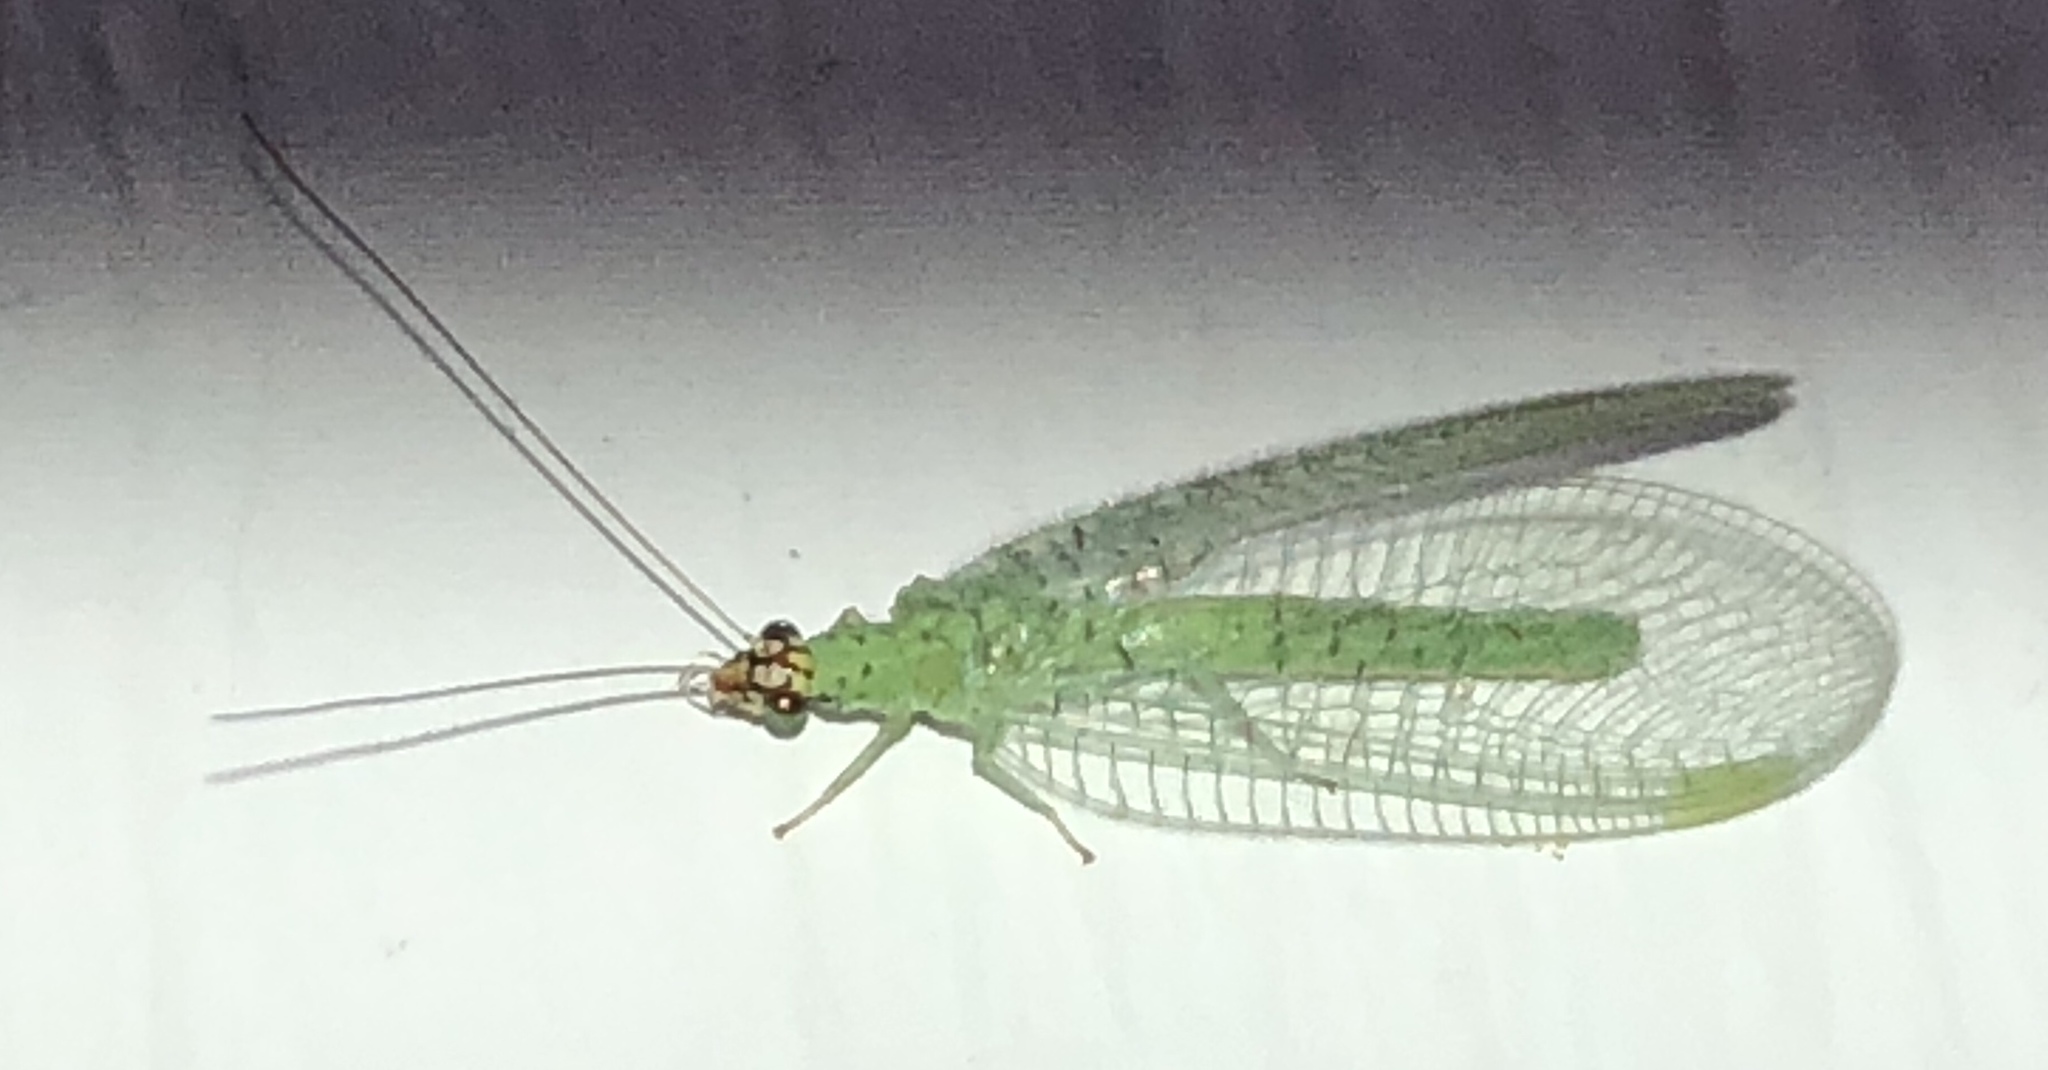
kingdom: Animalia
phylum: Arthropoda
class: Insecta
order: Neuroptera
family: Chrysopidae
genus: Chrysopa
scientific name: Chrysopa oculata
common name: Golden-eyed lacewing
